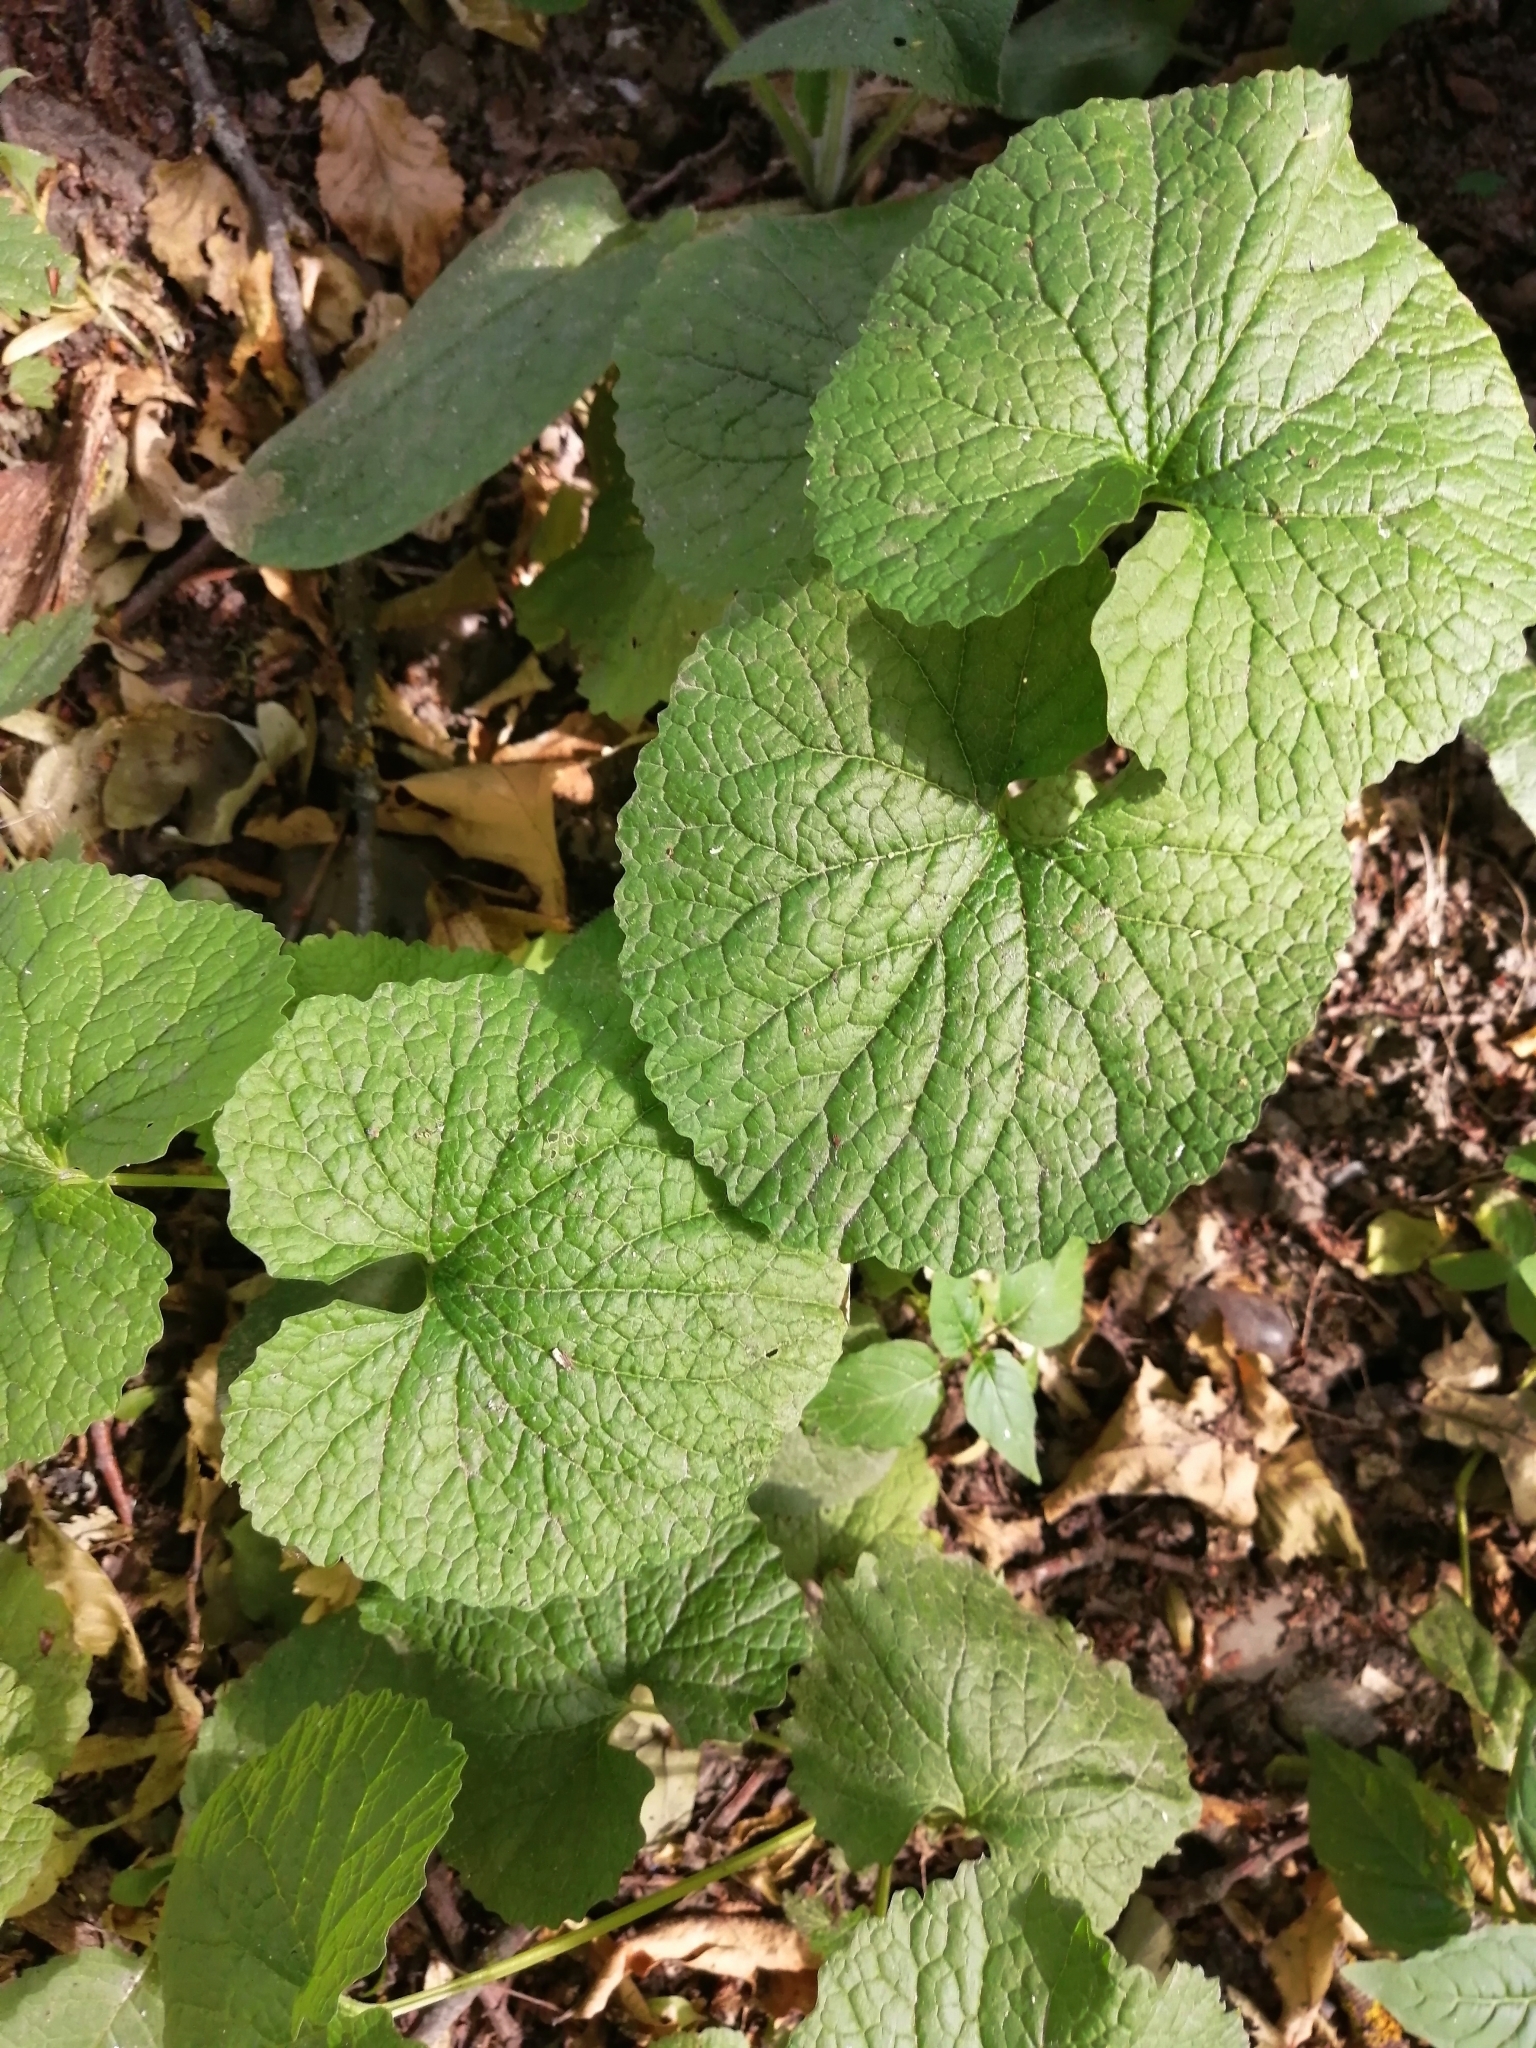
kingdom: Plantae
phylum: Tracheophyta
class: Magnoliopsida
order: Brassicales
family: Brassicaceae
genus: Alliaria
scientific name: Alliaria petiolata
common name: Garlic mustard
